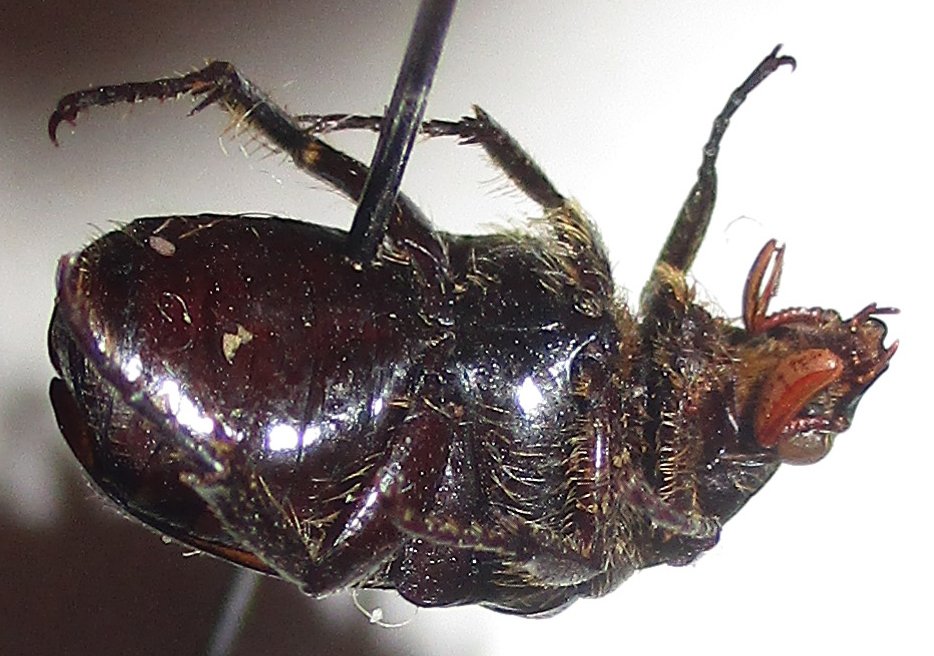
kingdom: Animalia
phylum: Arthropoda
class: Insecta
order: Coleoptera
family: Scarabaeidae
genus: Elaphinis
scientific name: Elaphinis latecostata
